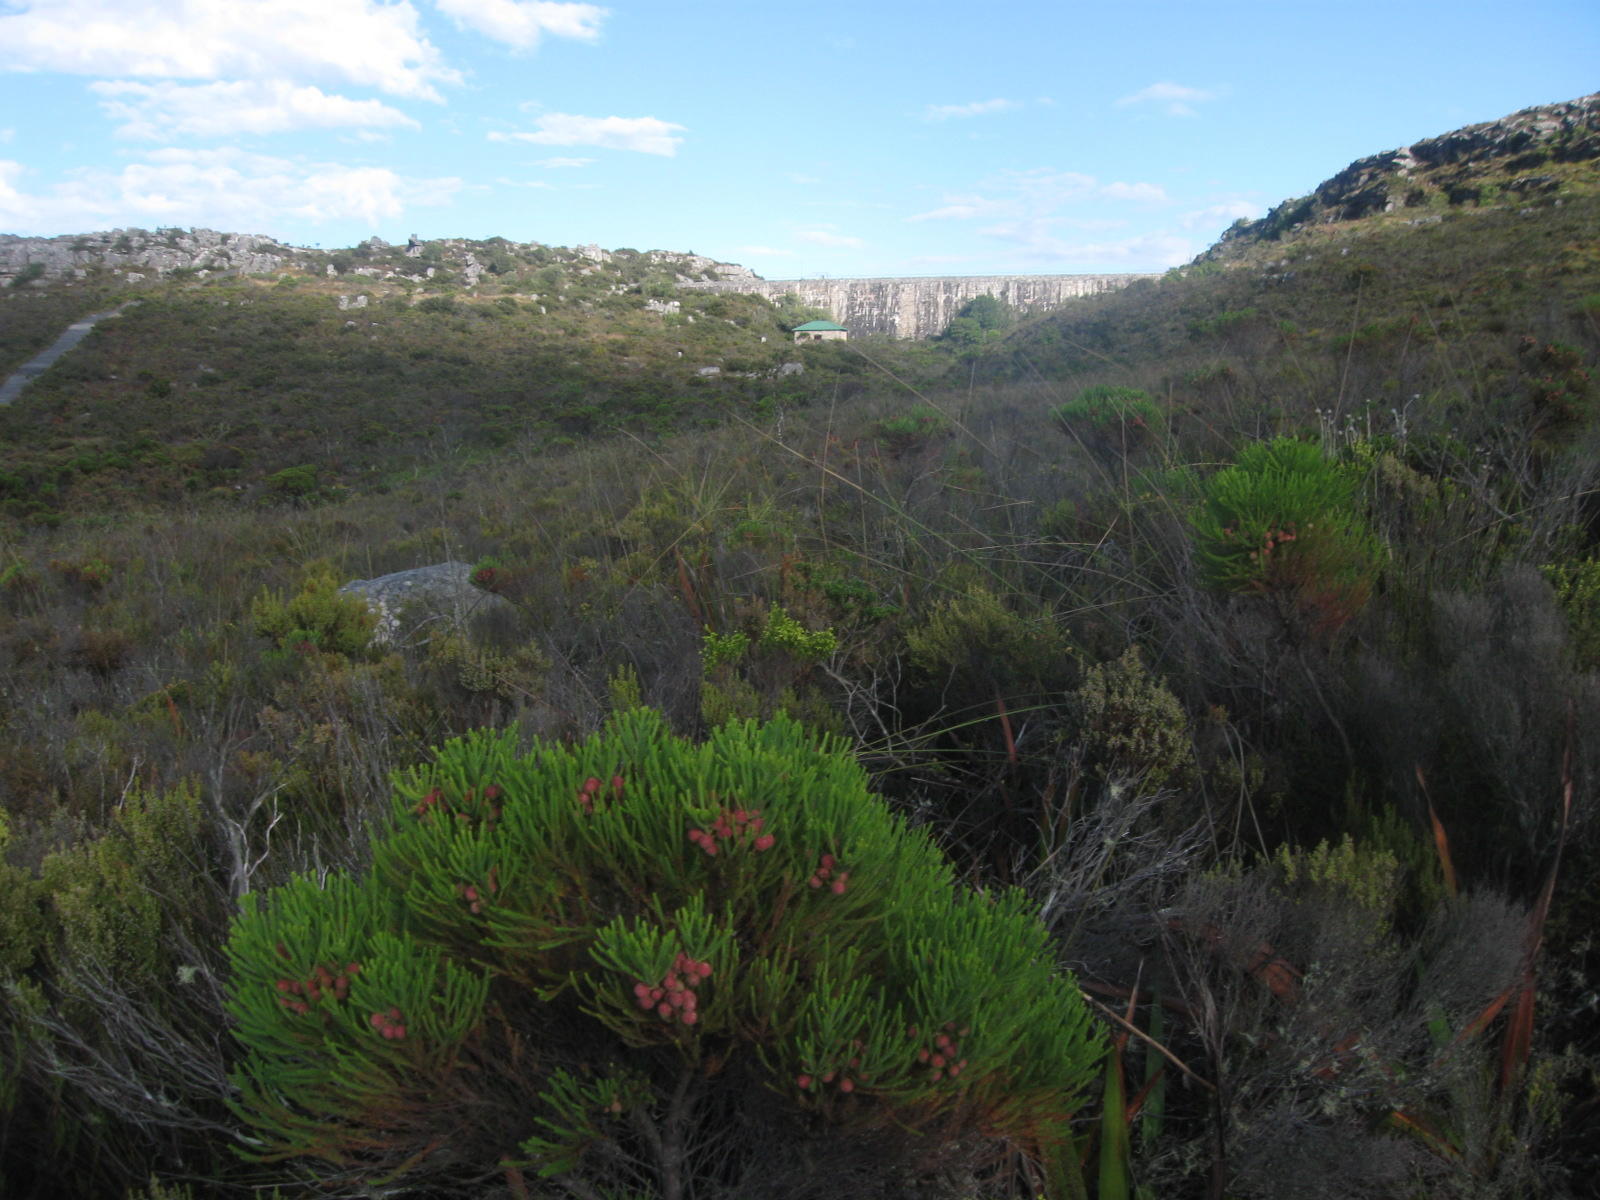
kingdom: Plantae
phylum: Tracheophyta
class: Magnoliopsida
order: Bruniales
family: Bruniaceae
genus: Berzelia
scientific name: Berzelia lanuginosa
